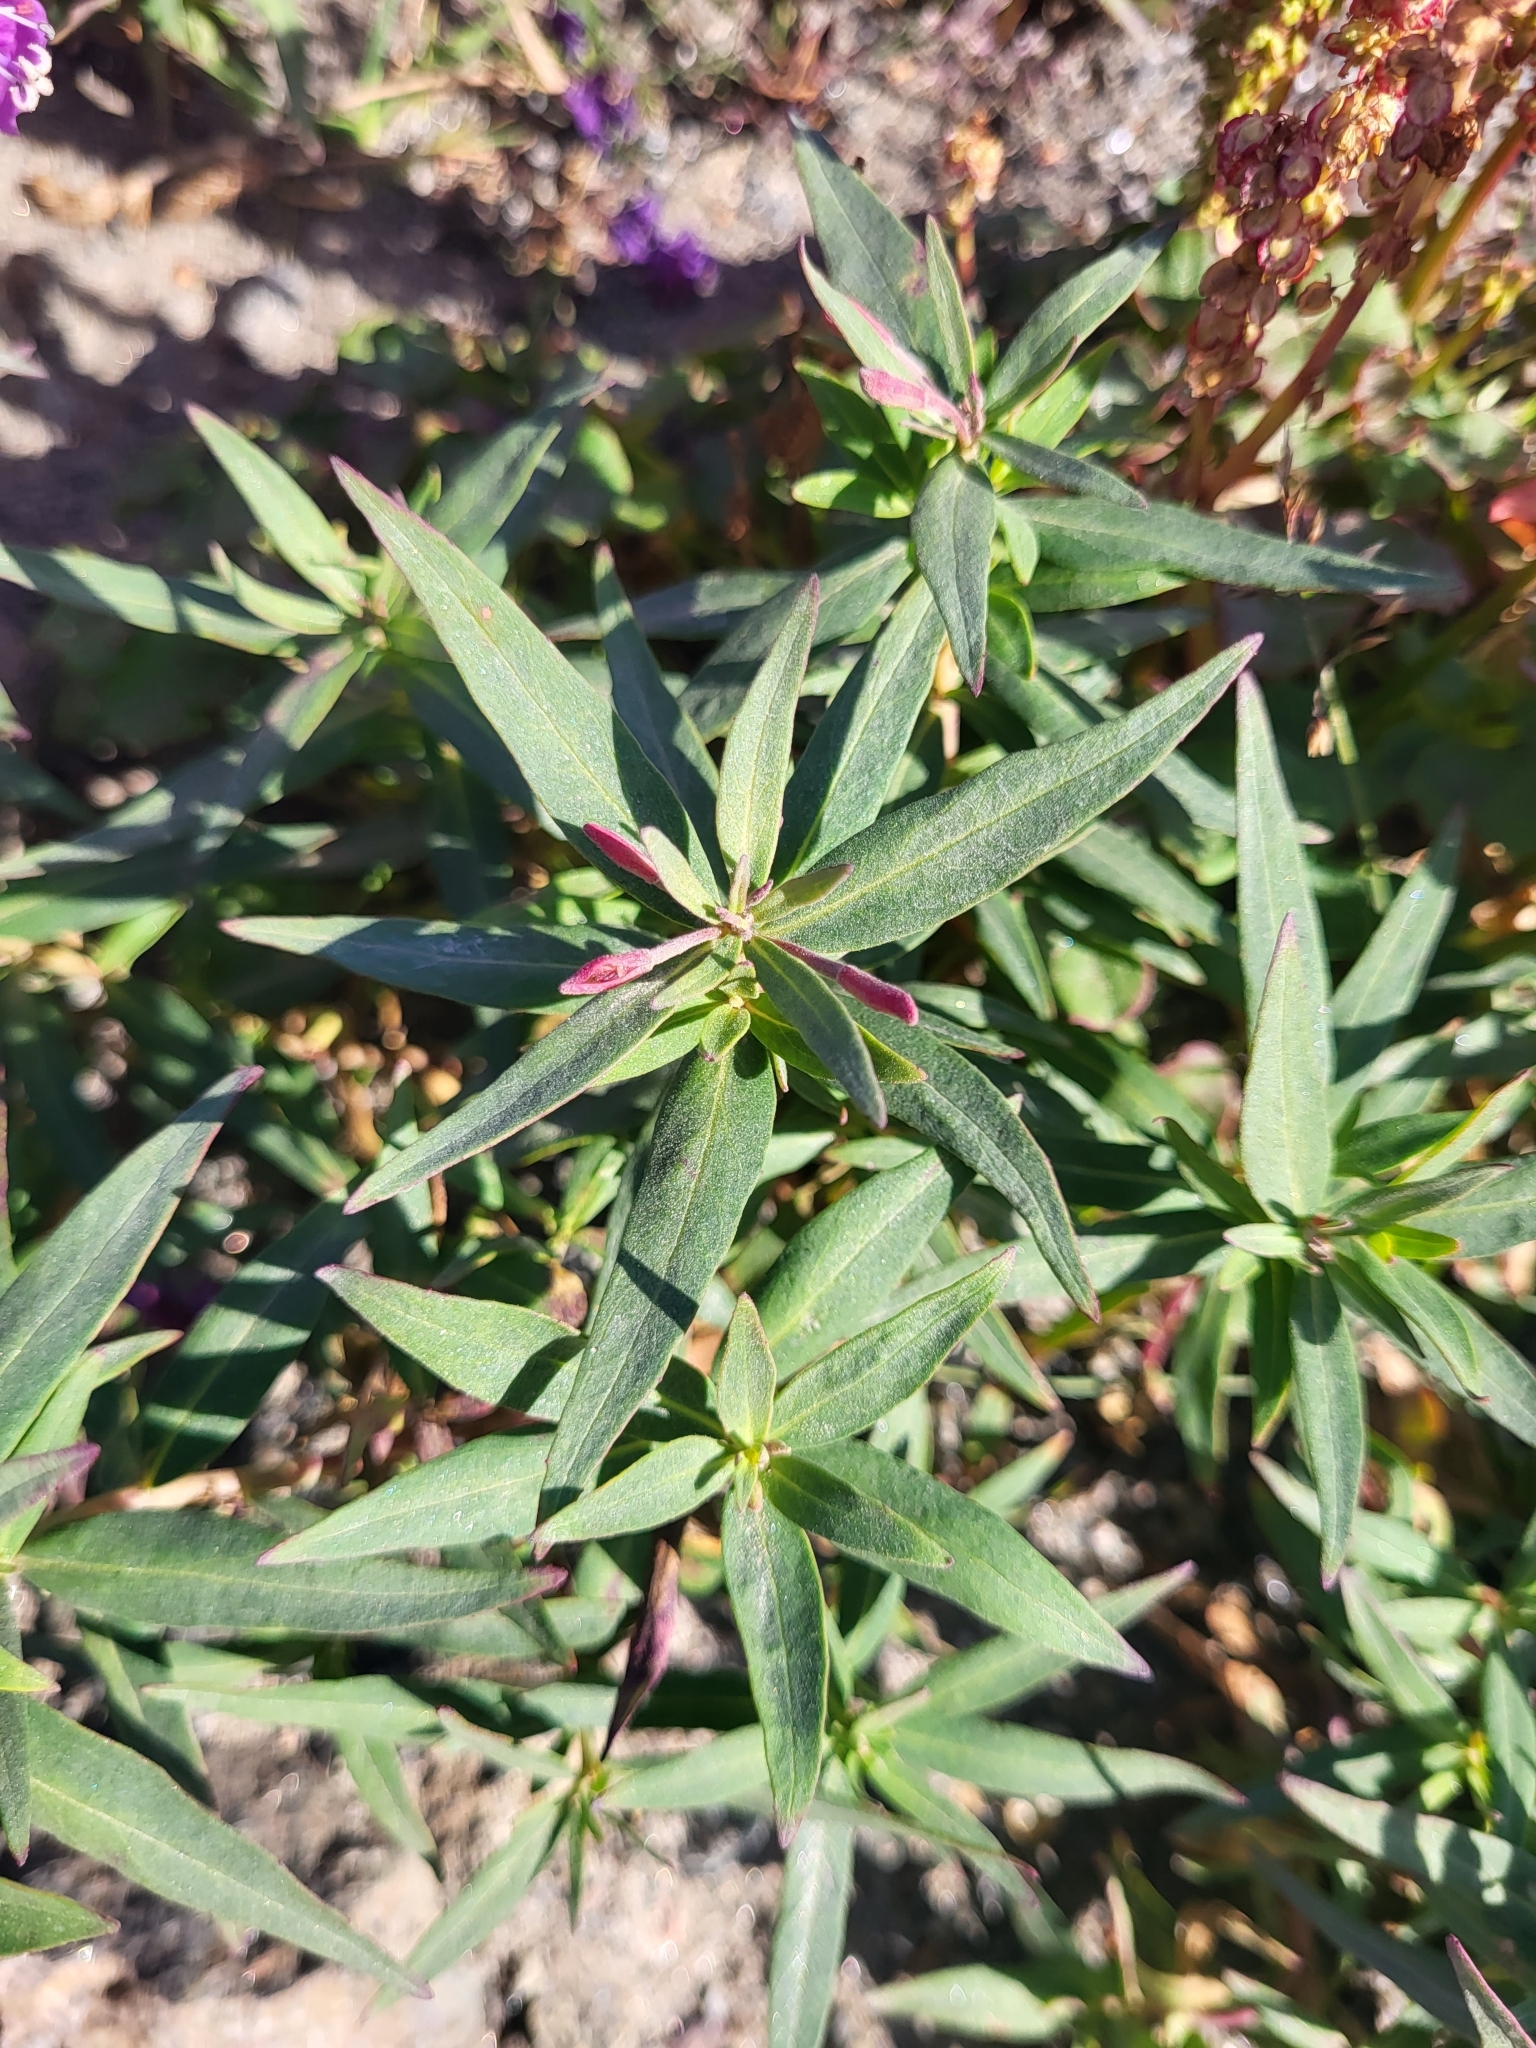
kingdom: Plantae
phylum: Tracheophyta
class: Magnoliopsida
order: Myrtales
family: Onagraceae
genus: Chamaenerion
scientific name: Chamaenerion latifolium
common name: Dwarf fireweed
